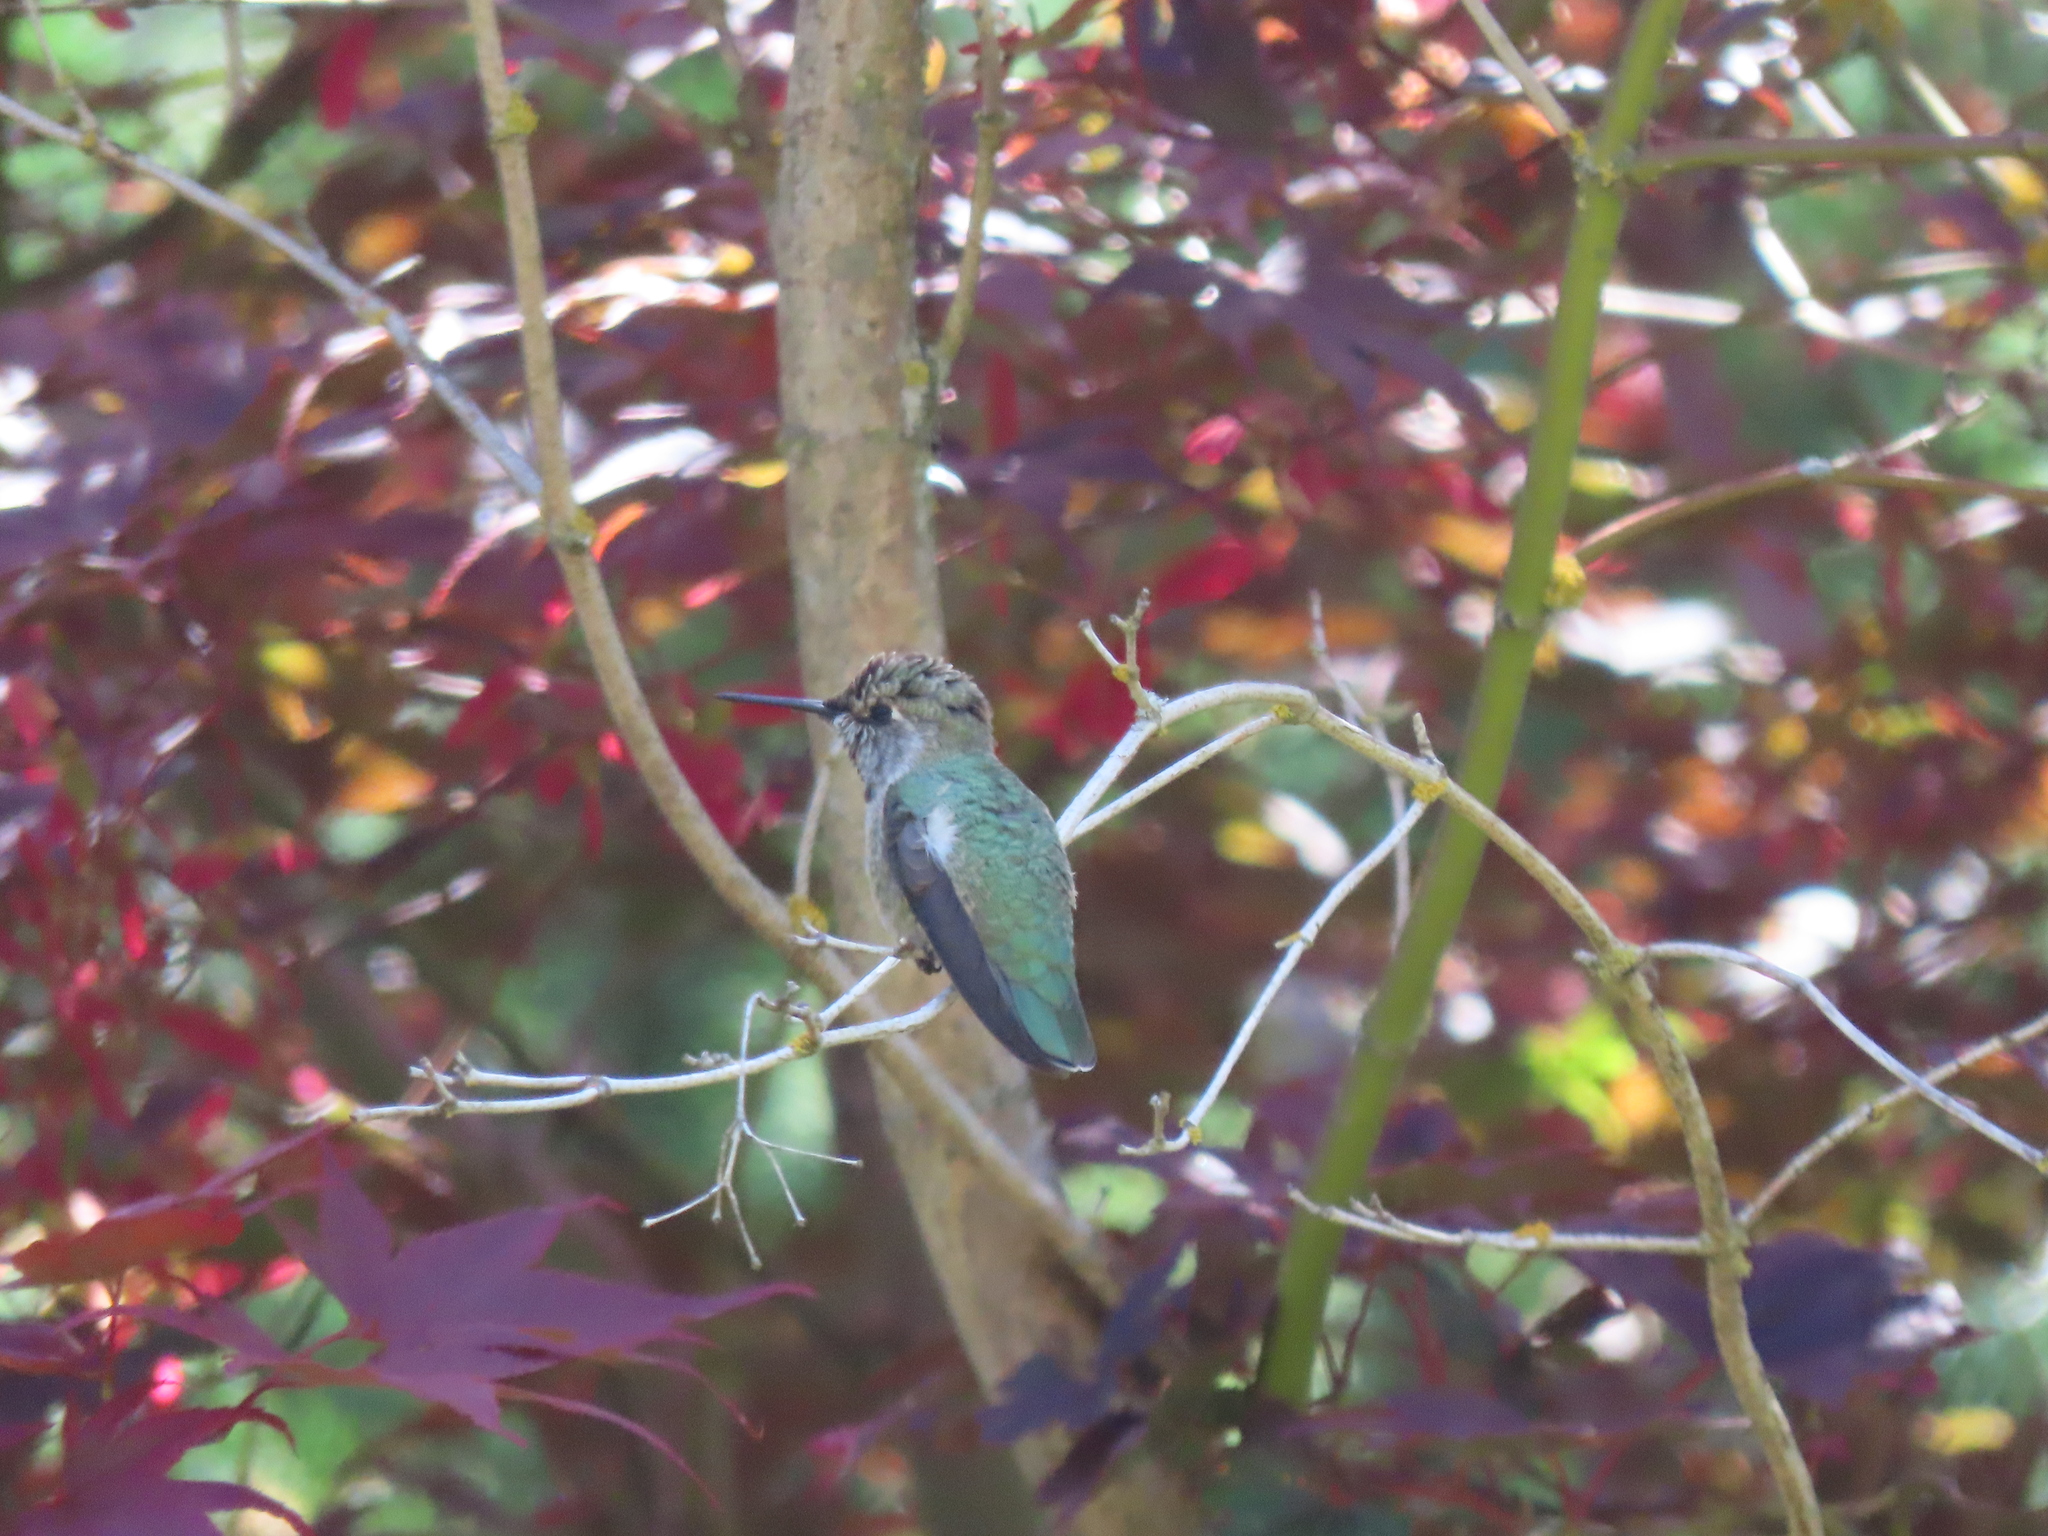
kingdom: Animalia
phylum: Chordata
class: Aves
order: Apodiformes
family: Trochilidae
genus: Calypte
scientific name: Calypte anna
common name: Anna's hummingbird
